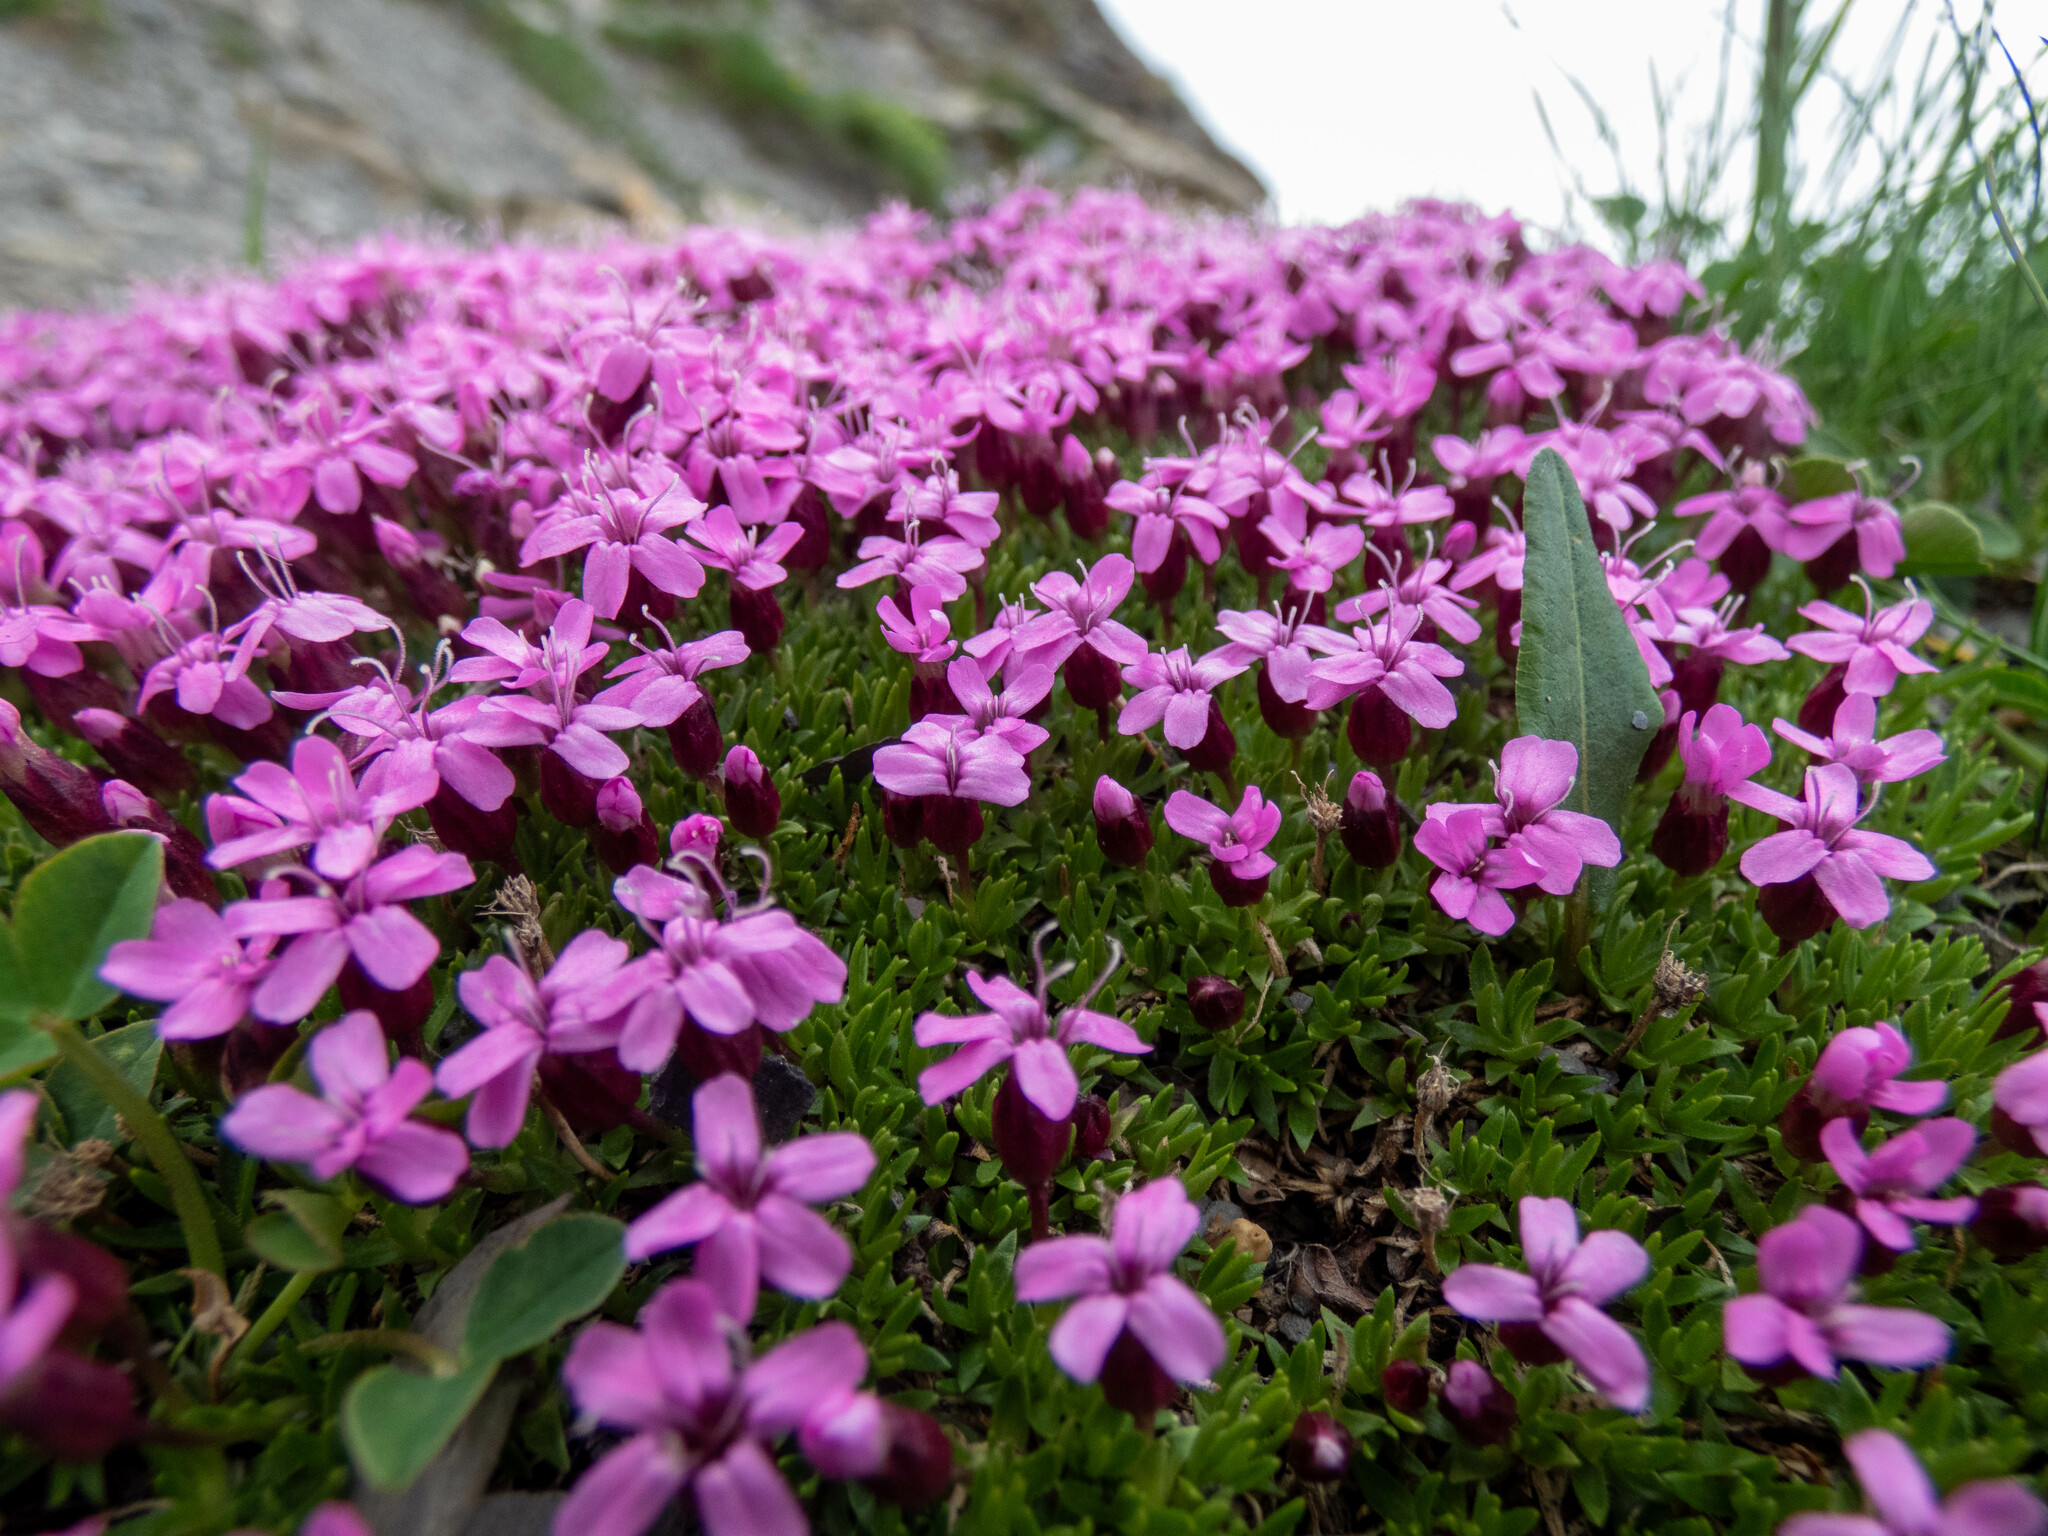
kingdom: Plantae
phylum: Tracheophyta
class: Magnoliopsida
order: Caryophyllales
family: Caryophyllaceae
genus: Silene
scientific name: Silene acaulis
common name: Moss campion
